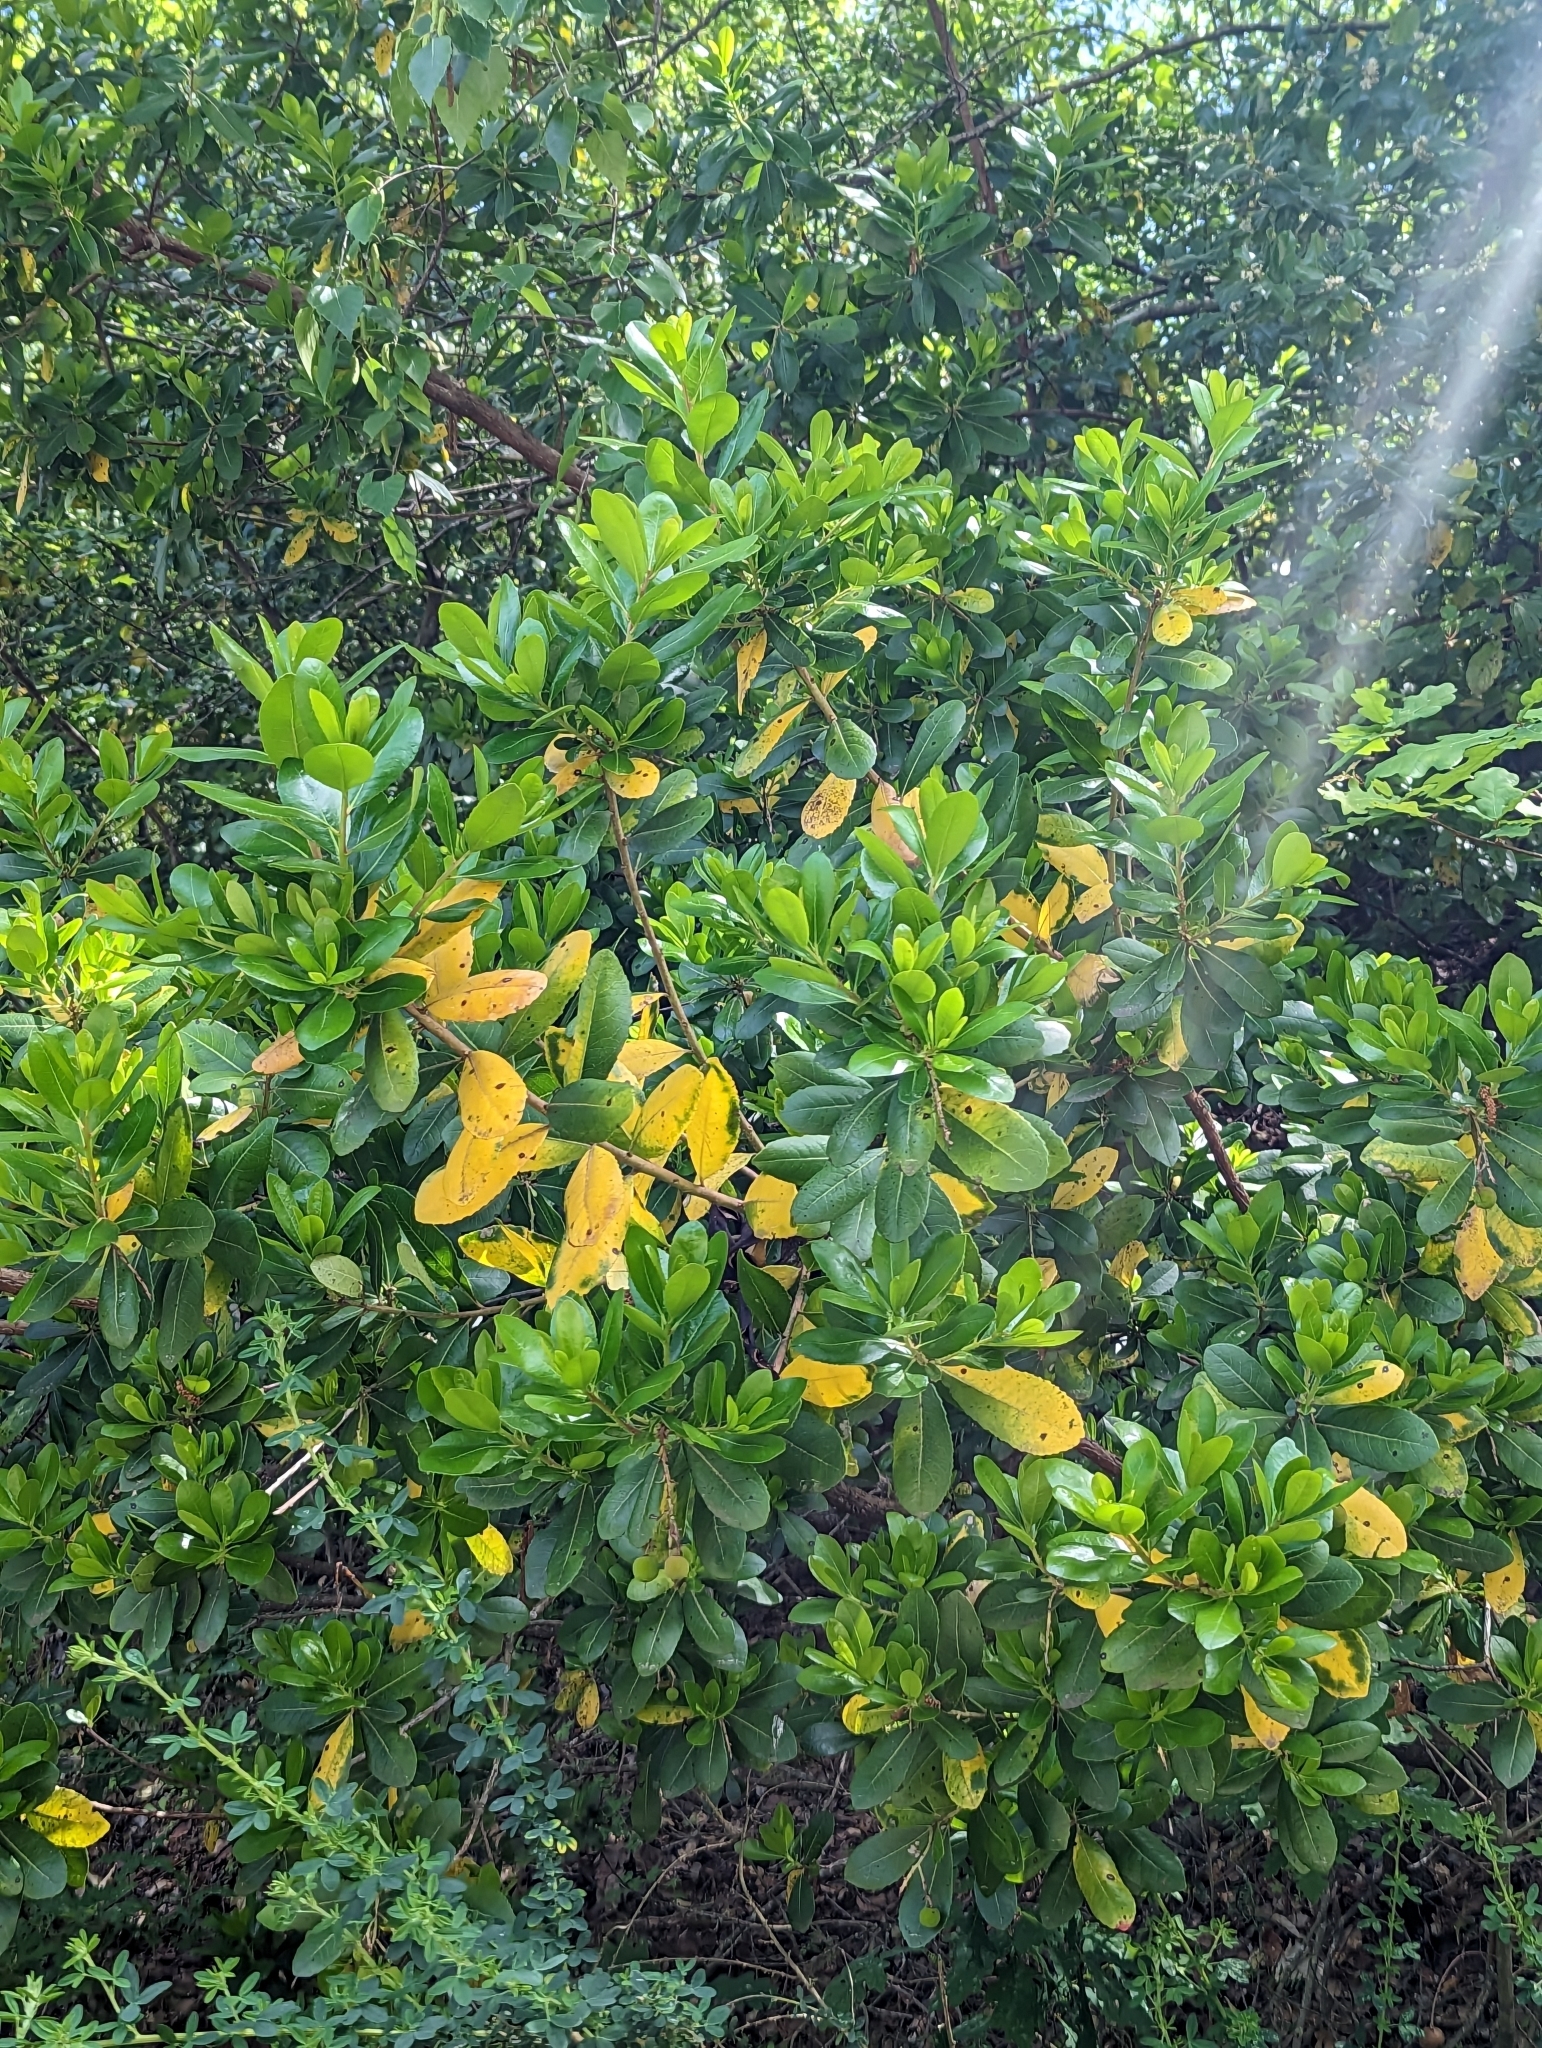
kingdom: Plantae
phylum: Tracheophyta
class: Magnoliopsida
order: Ericales
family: Ericaceae
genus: Arbutus
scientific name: Arbutus unedo
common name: Strawberry-tree
